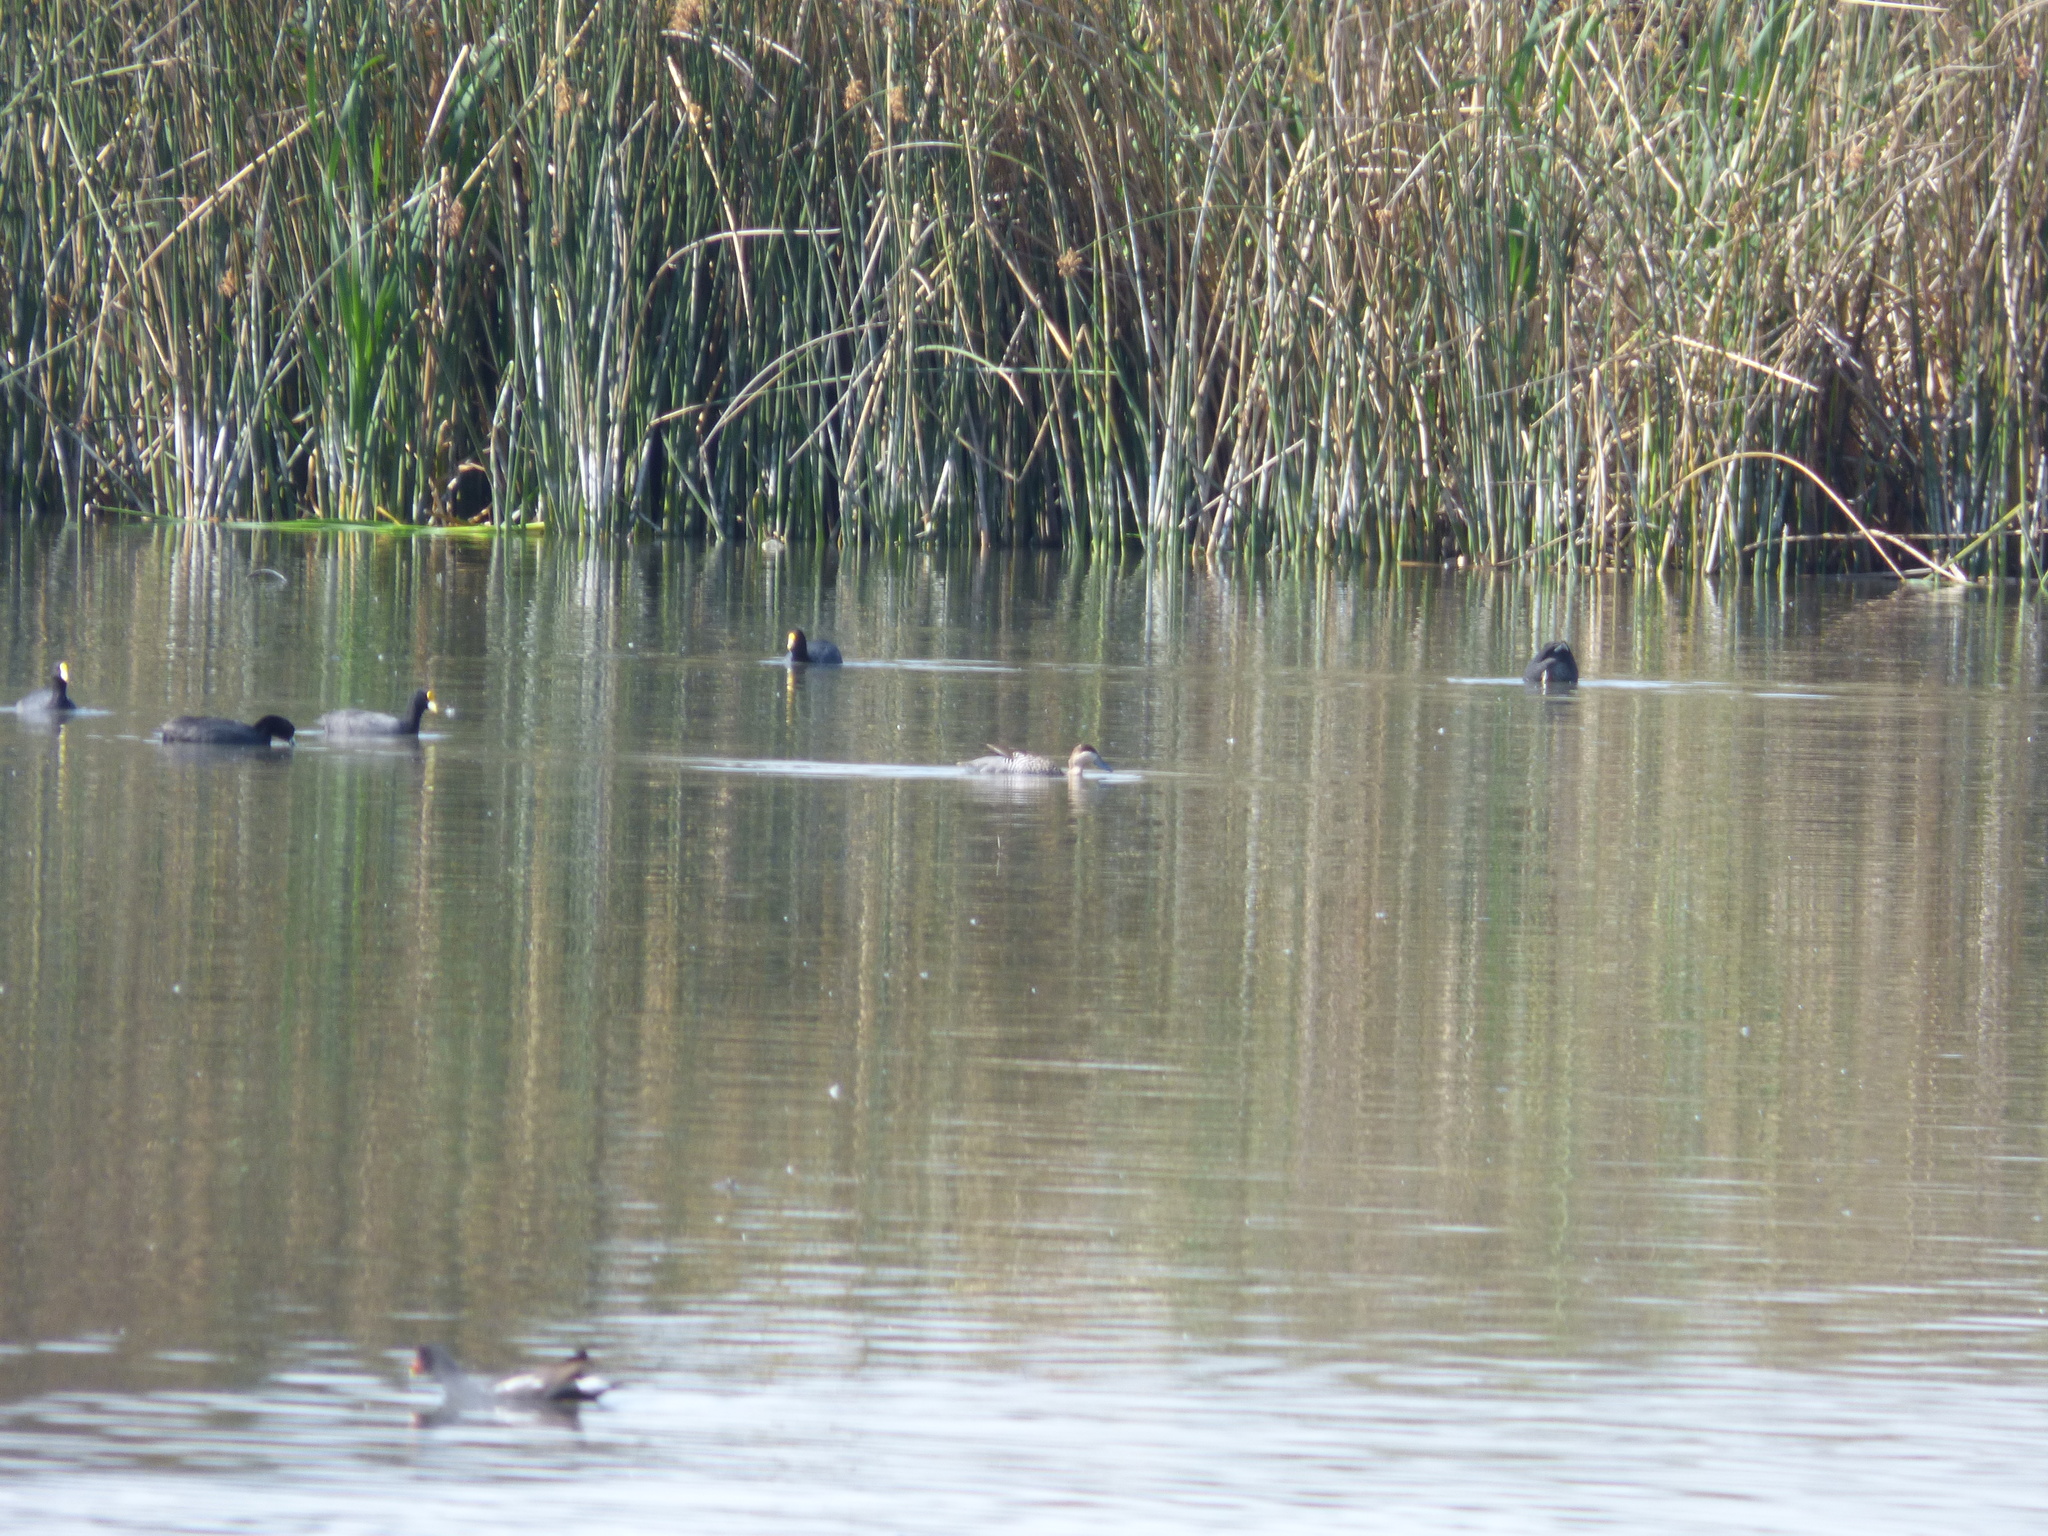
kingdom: Animalia
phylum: Chordata
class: Aves
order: Anseriformes
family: Anatidae
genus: Spatula
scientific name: Spatula versicolor
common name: Silver teal
